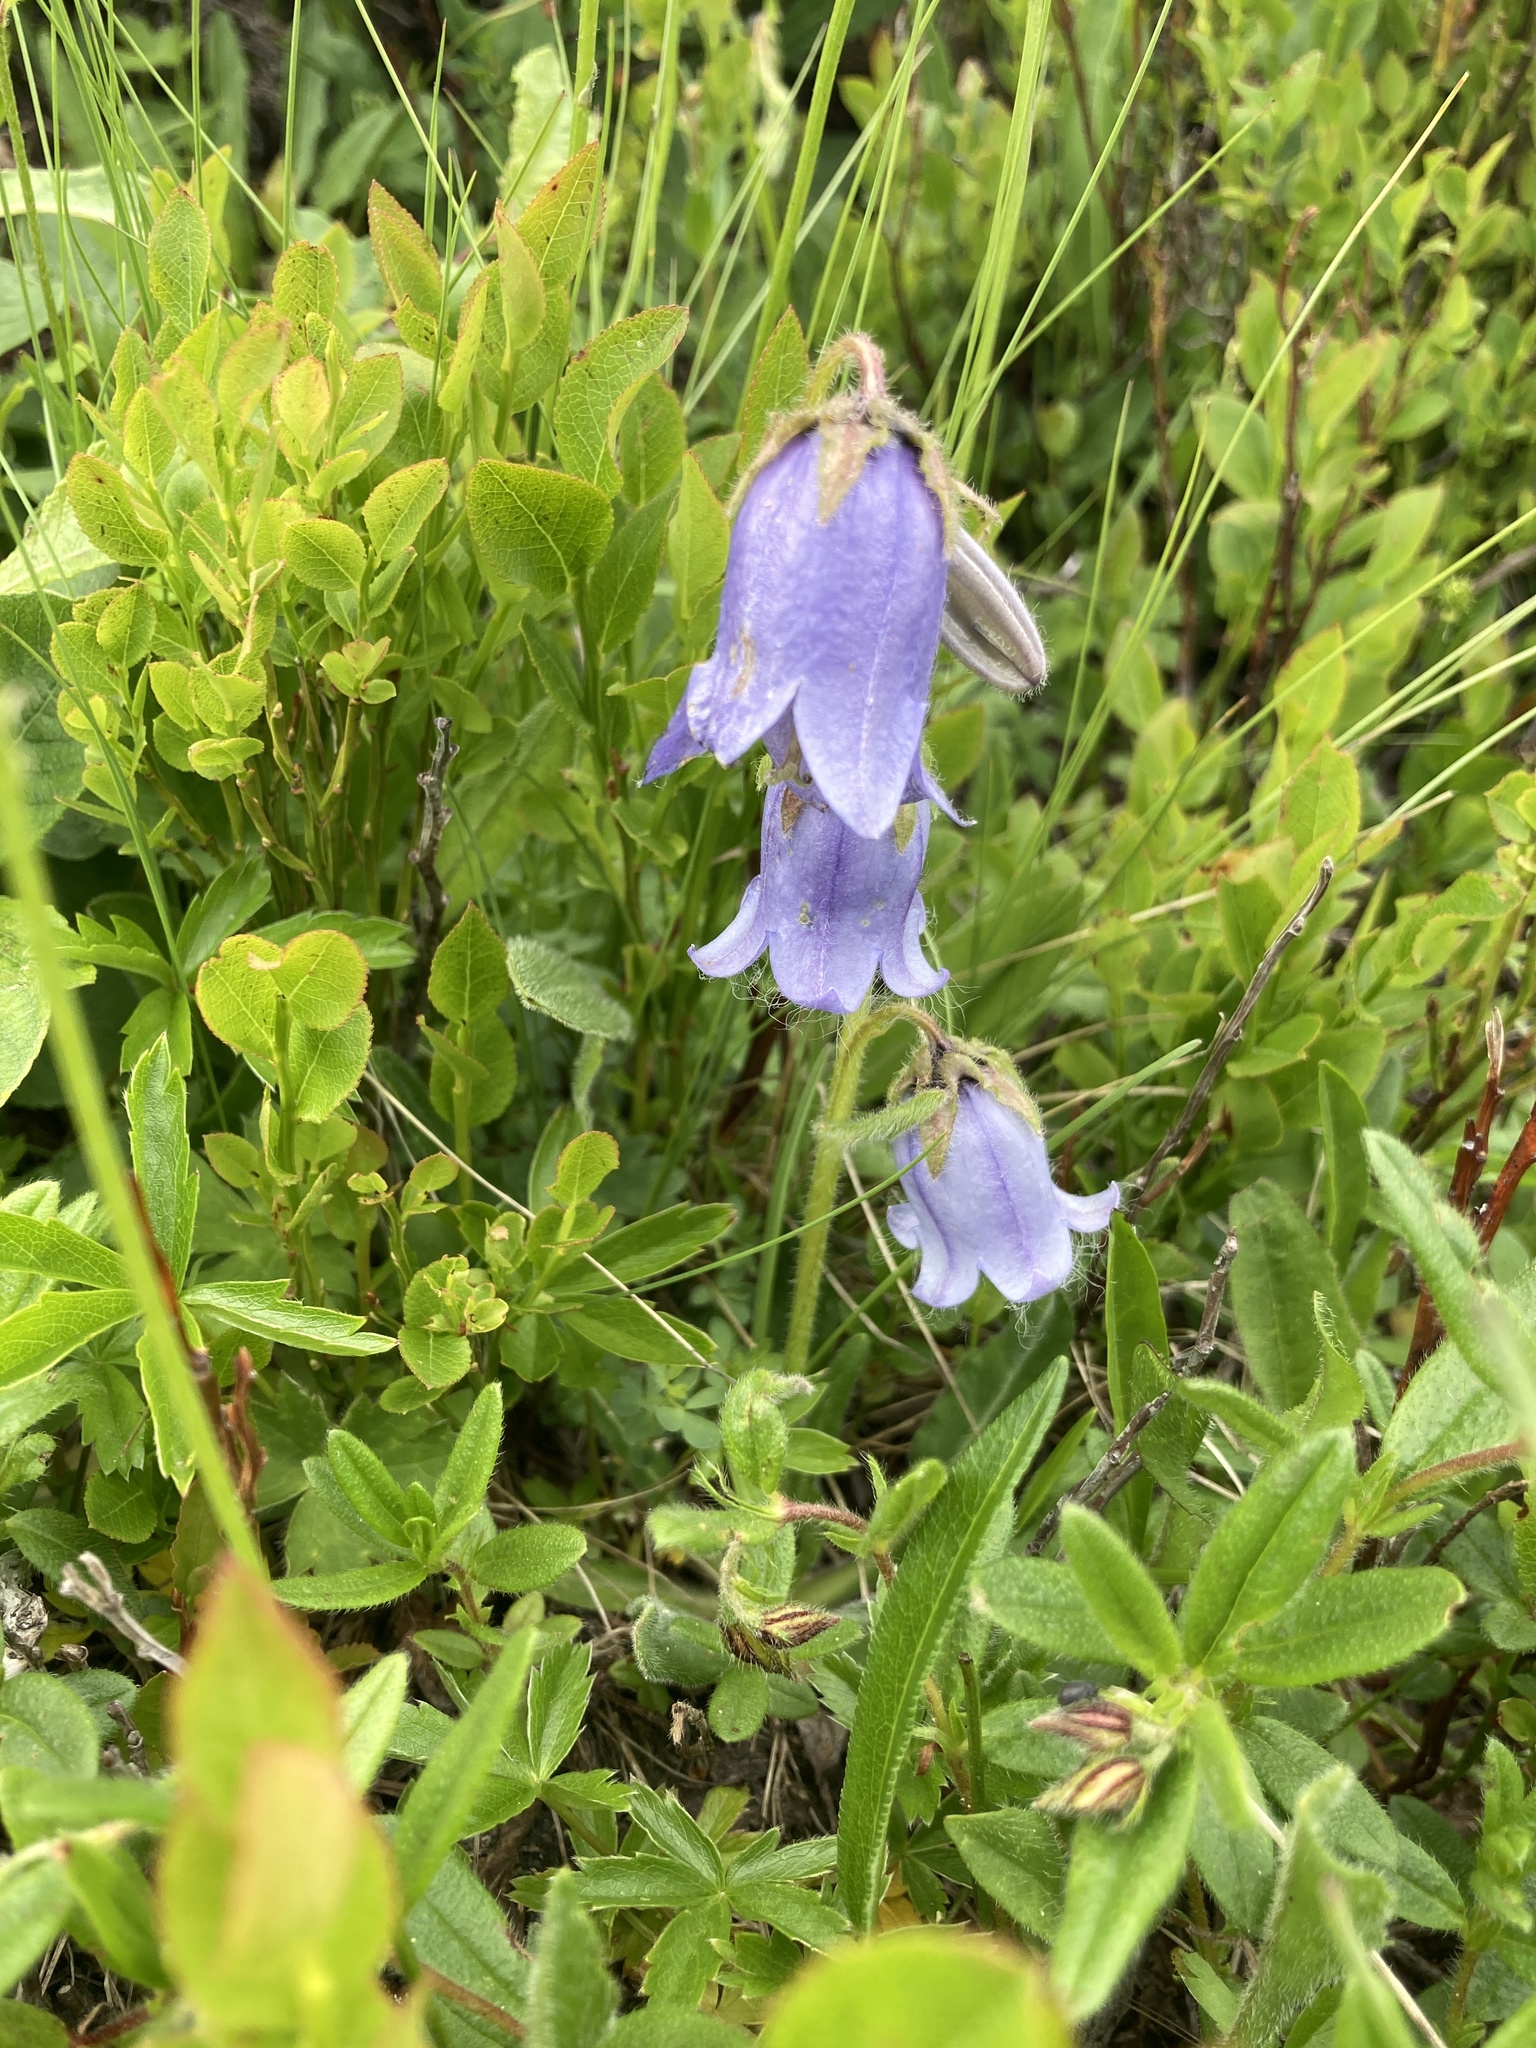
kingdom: Plantae
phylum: Tracheophyta
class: Magnoliopsida
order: Asterales
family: Campanulaceae
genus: Campanula
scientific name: Campanula barbata
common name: Bearded bellflower
